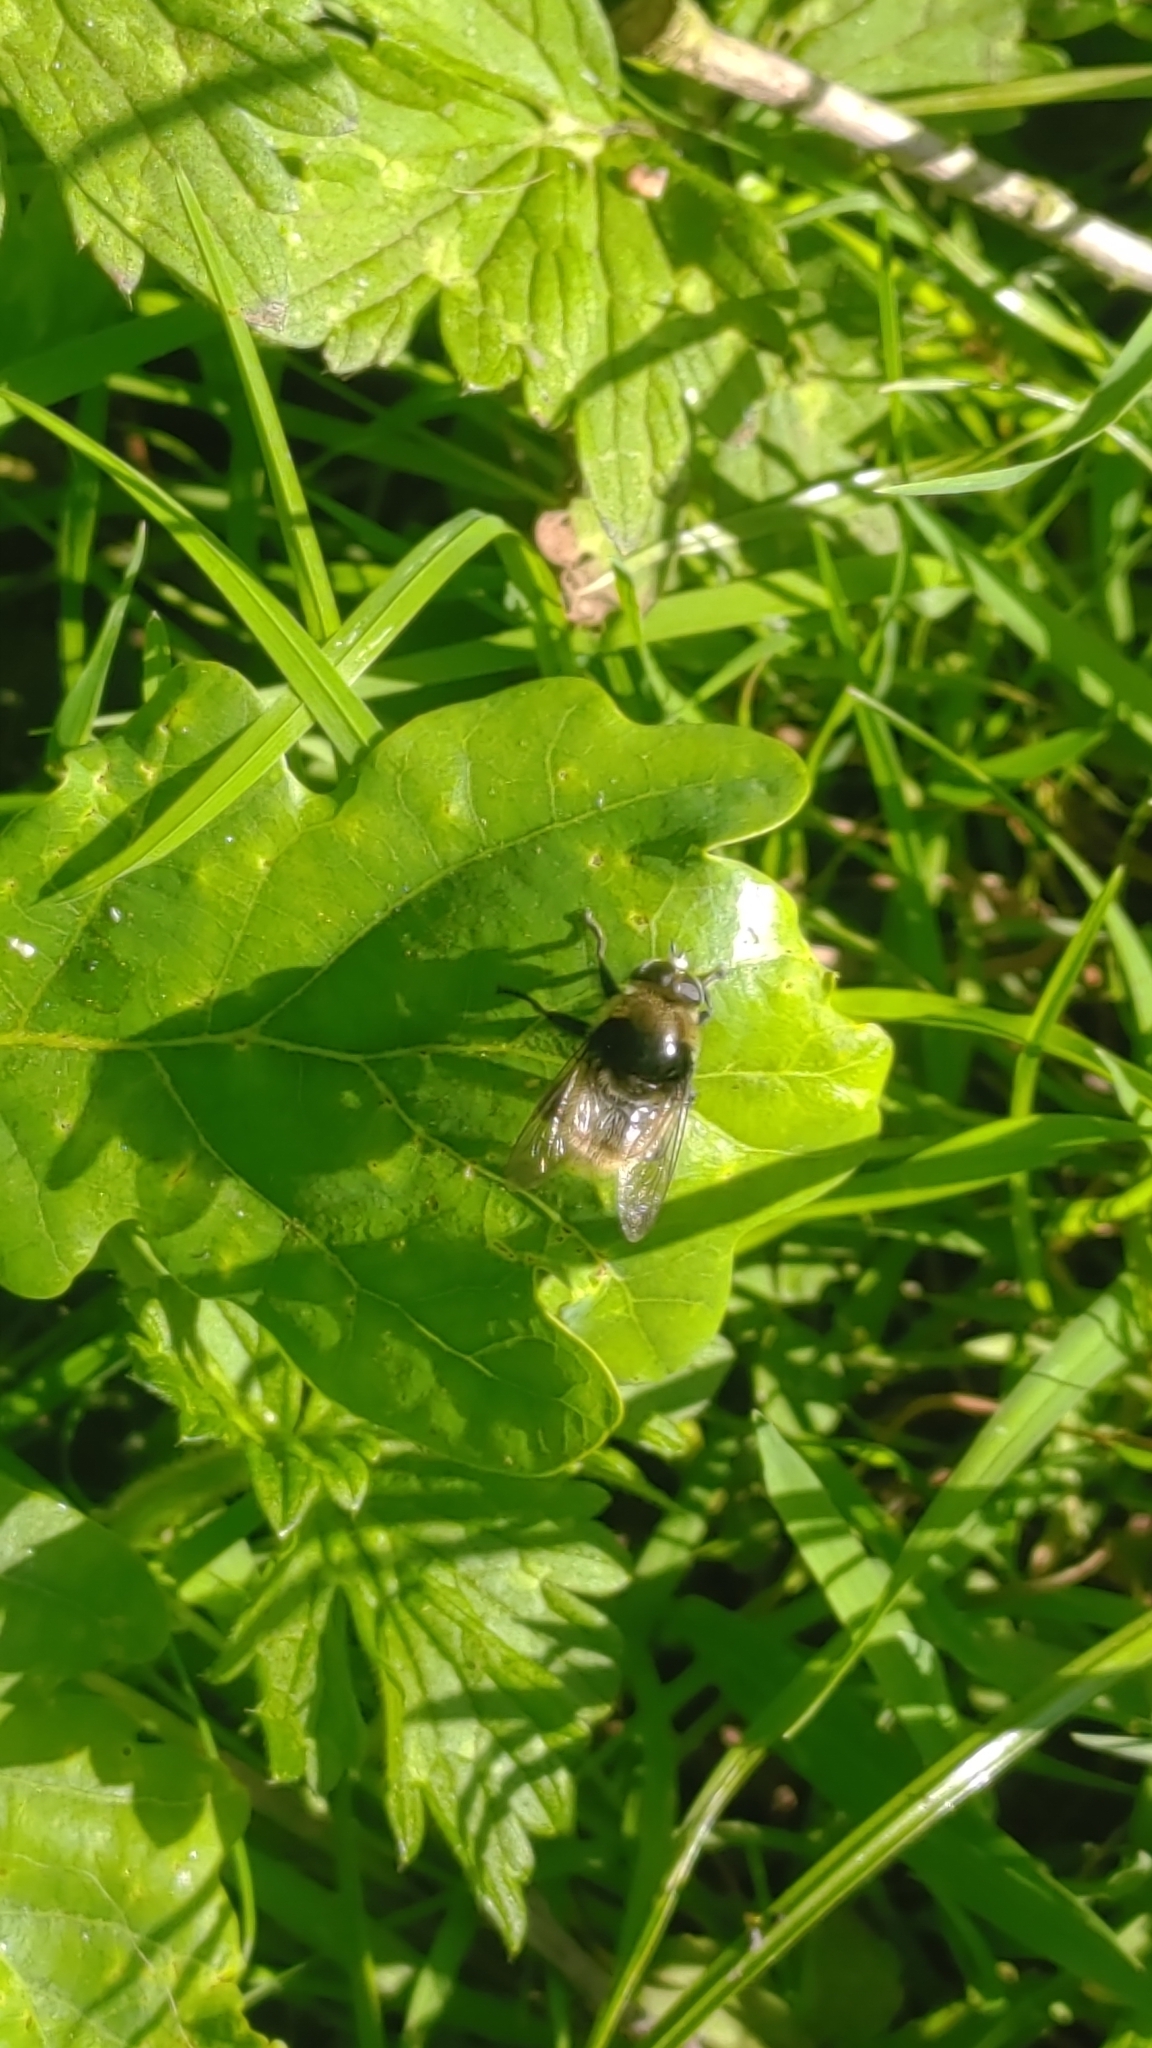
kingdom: Animalia
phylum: Arthropoda
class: Insecta
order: Diptera
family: Syrphidae
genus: Merodon
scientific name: Merodon equestris
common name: Greater bulb-fly
